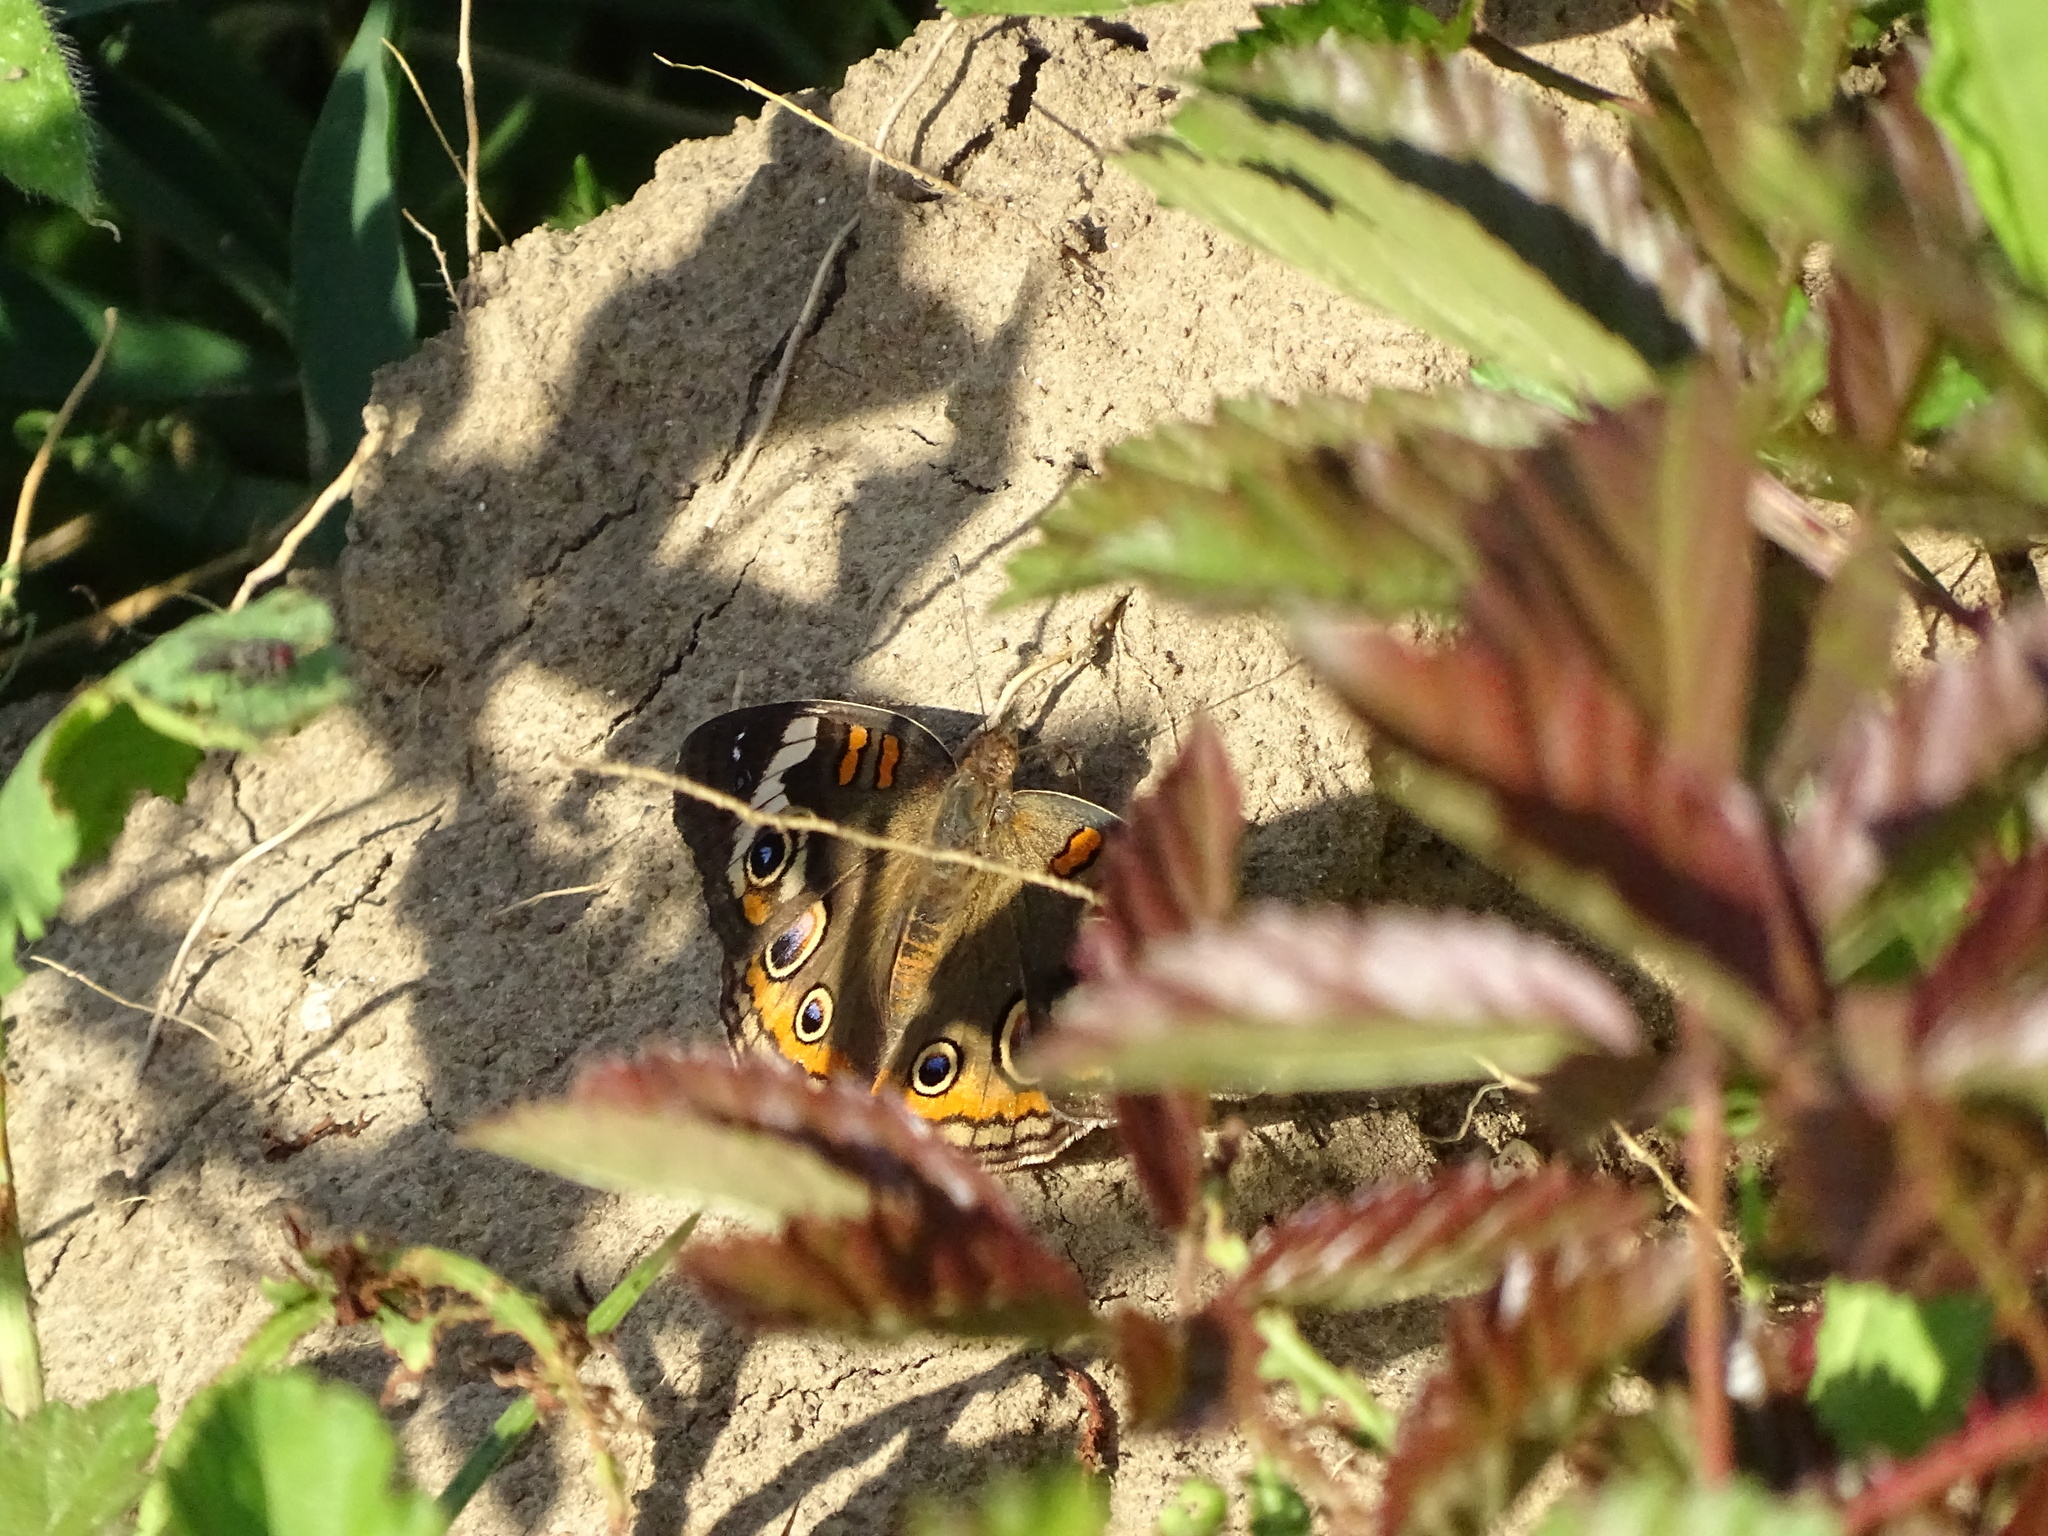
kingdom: Animalia
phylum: Arthropoda
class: Insecta
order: Lepidoptera
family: Nymphalidae
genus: Junonia
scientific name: Junonia coenia
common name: Common buckeye
